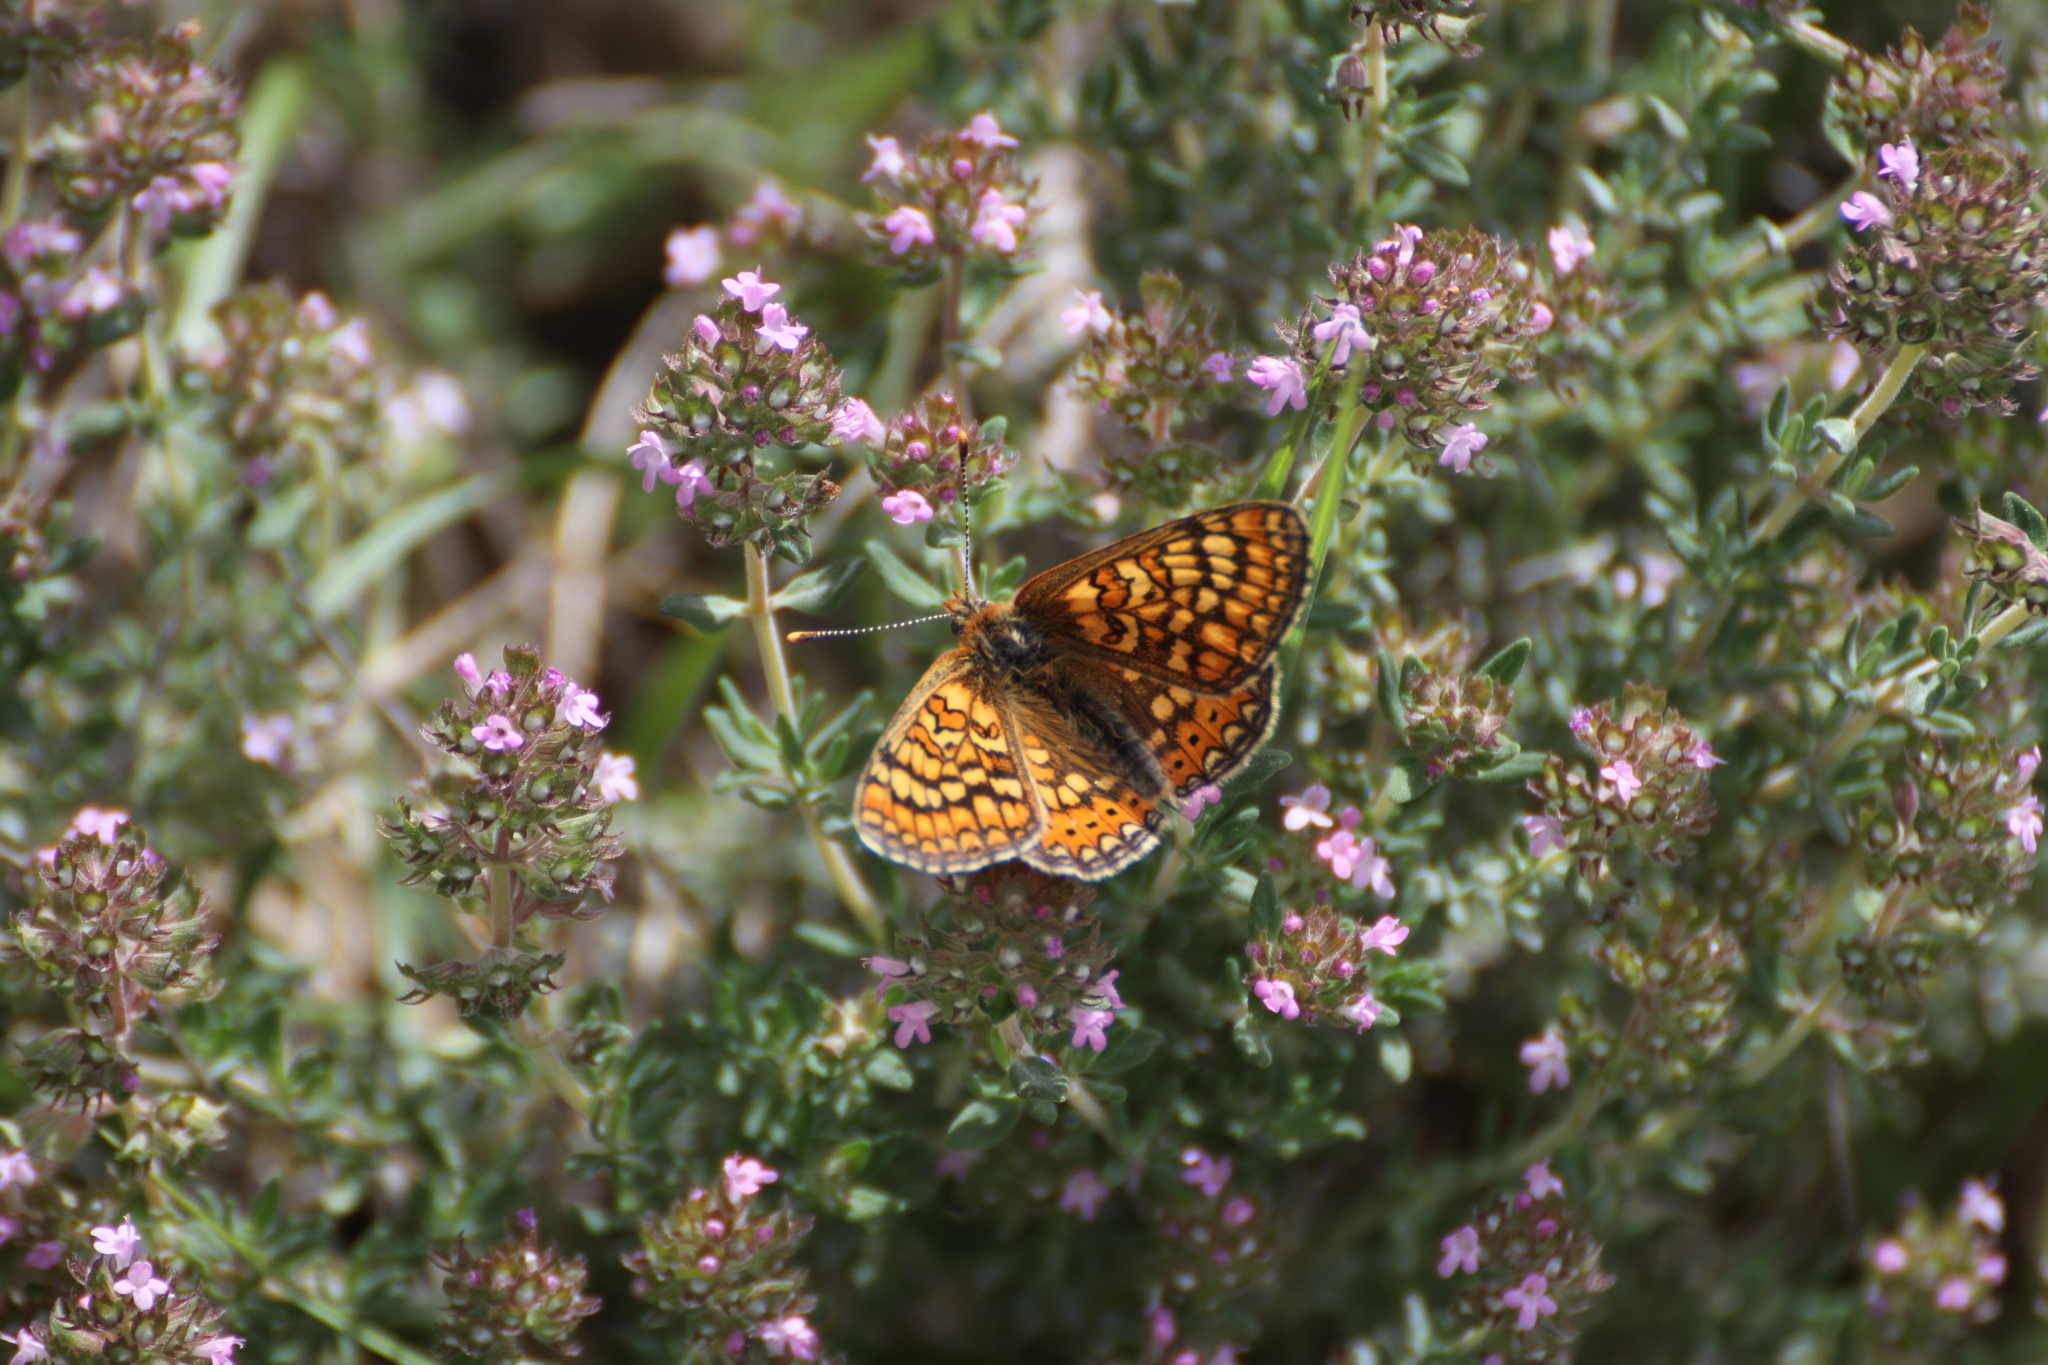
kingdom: Animalia
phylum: Arthropoda
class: Insecta
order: Lepidoptera
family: Nymphalidae
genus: Euphydryas
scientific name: Euphydryas aurinia
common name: Marsh fritillary
